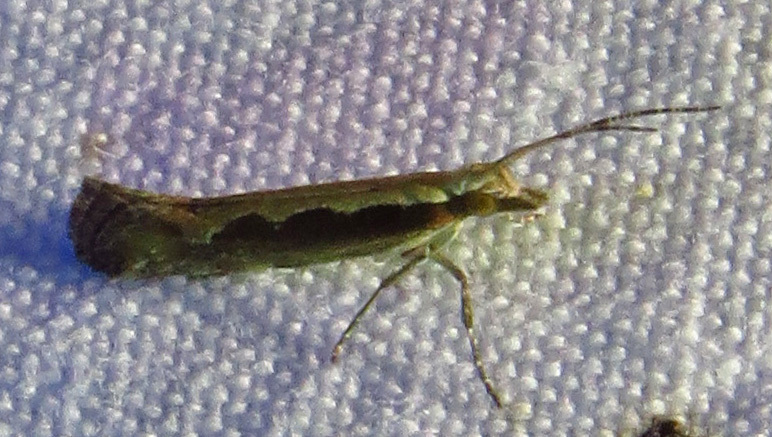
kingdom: Animalia
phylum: Arthropoda
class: Insecta
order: Lepidoptera
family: Plutellidae
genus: Plutella
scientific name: Plutella xylostella
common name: Diamond-back moth
